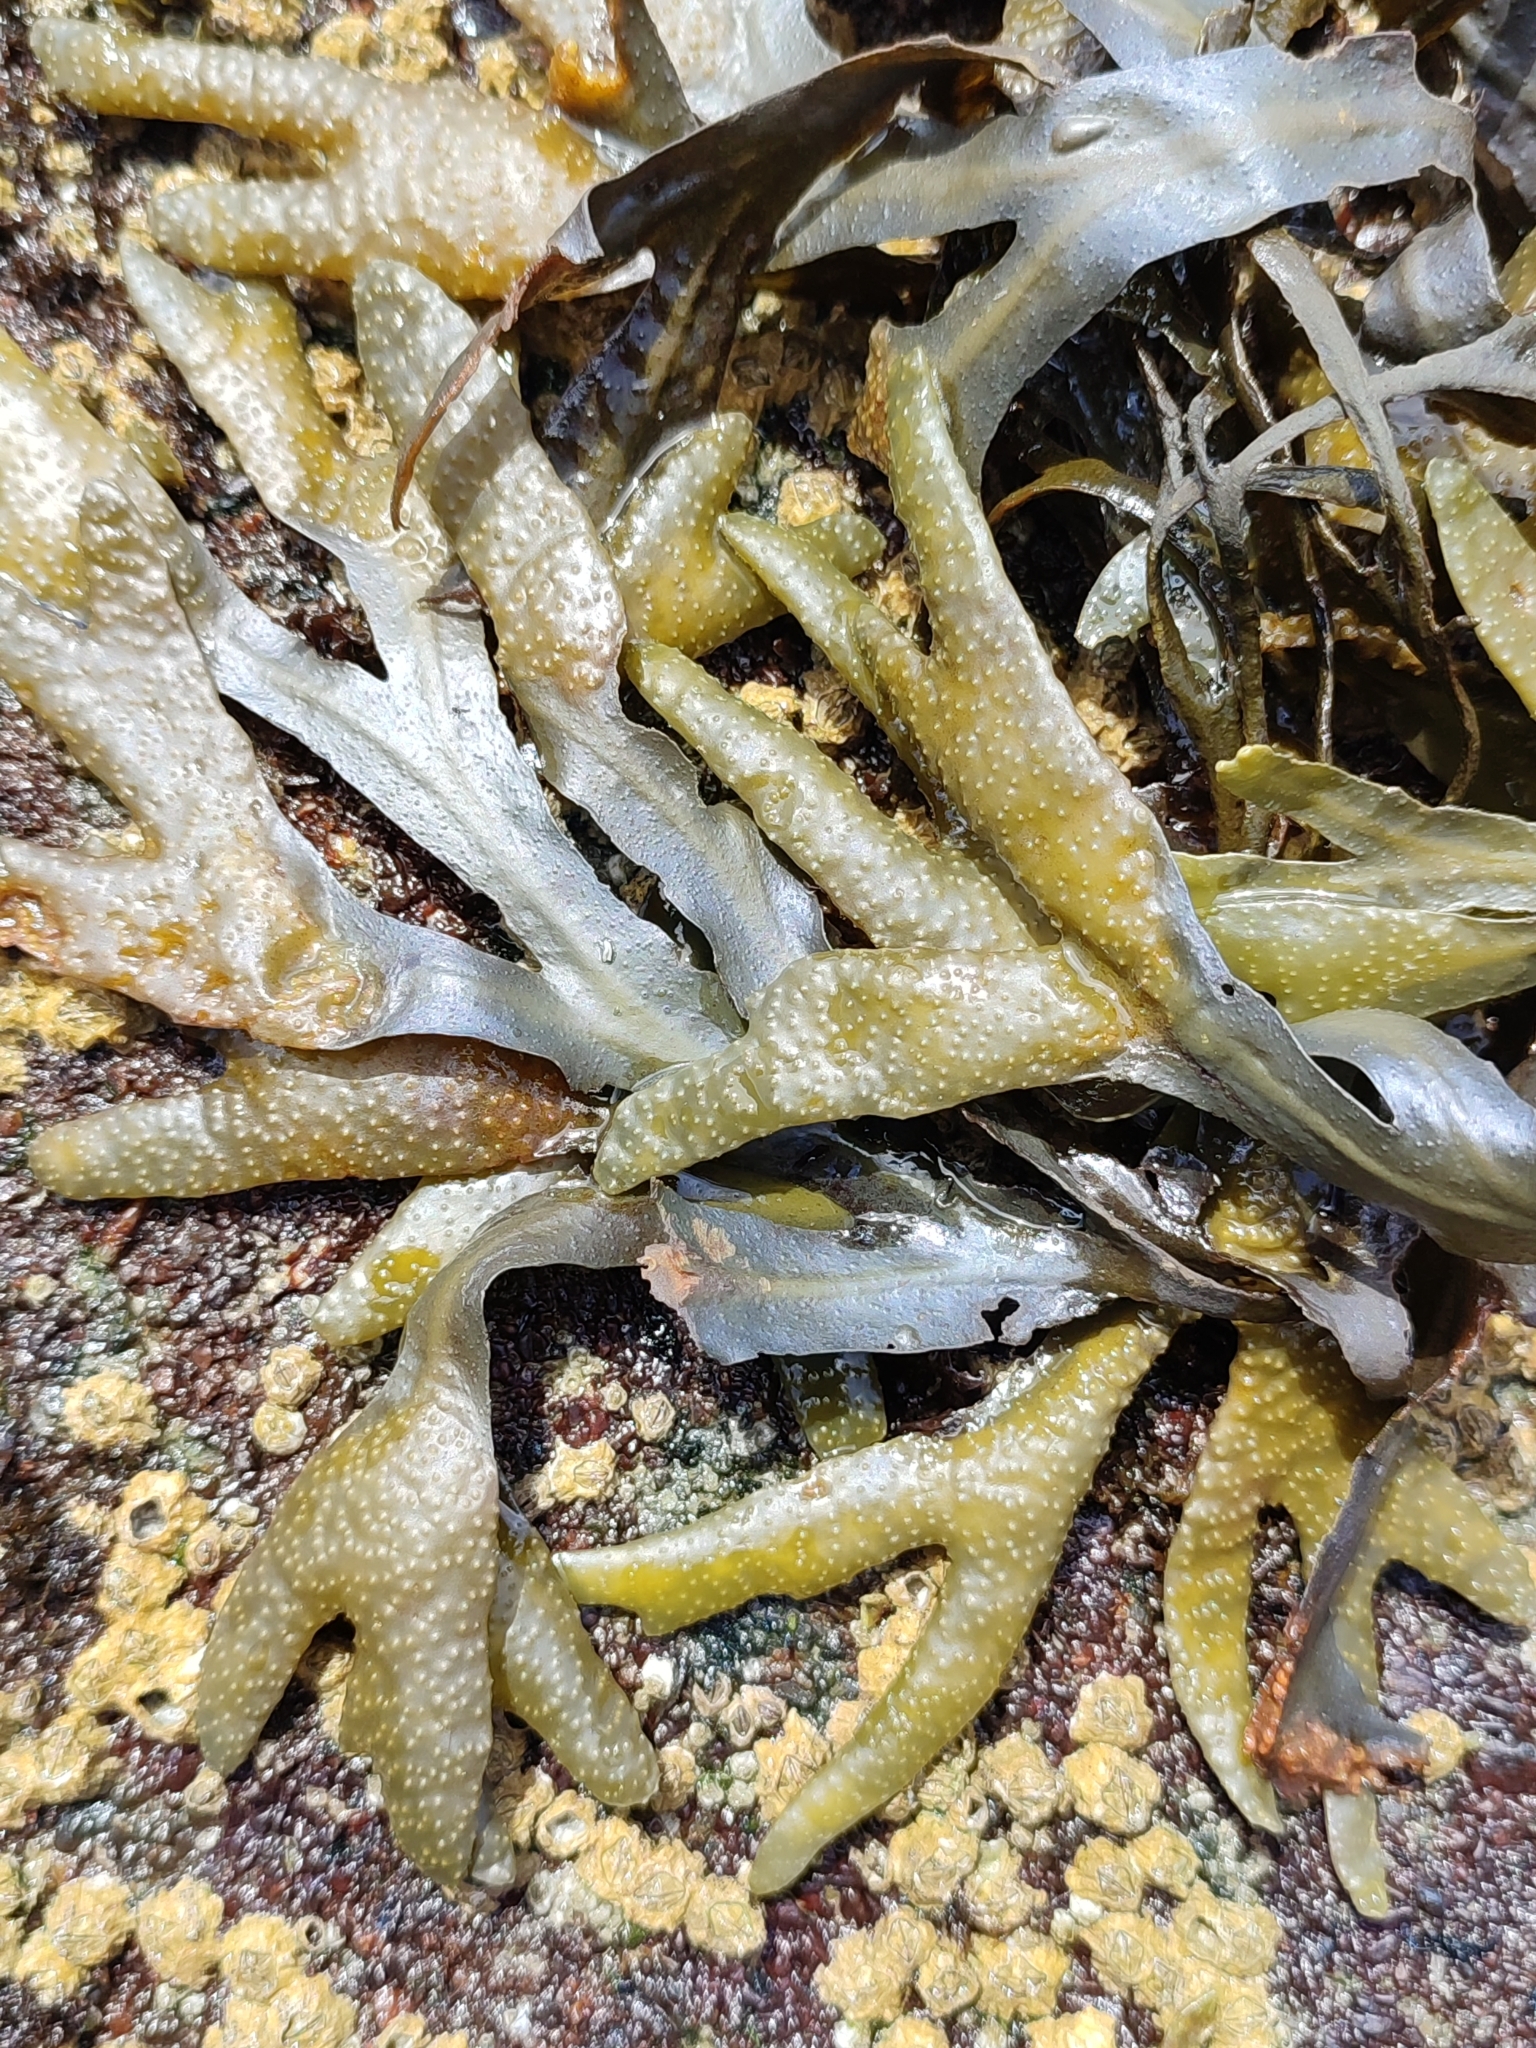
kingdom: Chromista
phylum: Ochrophyta
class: Phaeophyceae
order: Fucales
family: Fucaceae
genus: Fucus
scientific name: Fucus distichus
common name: Rockweed
